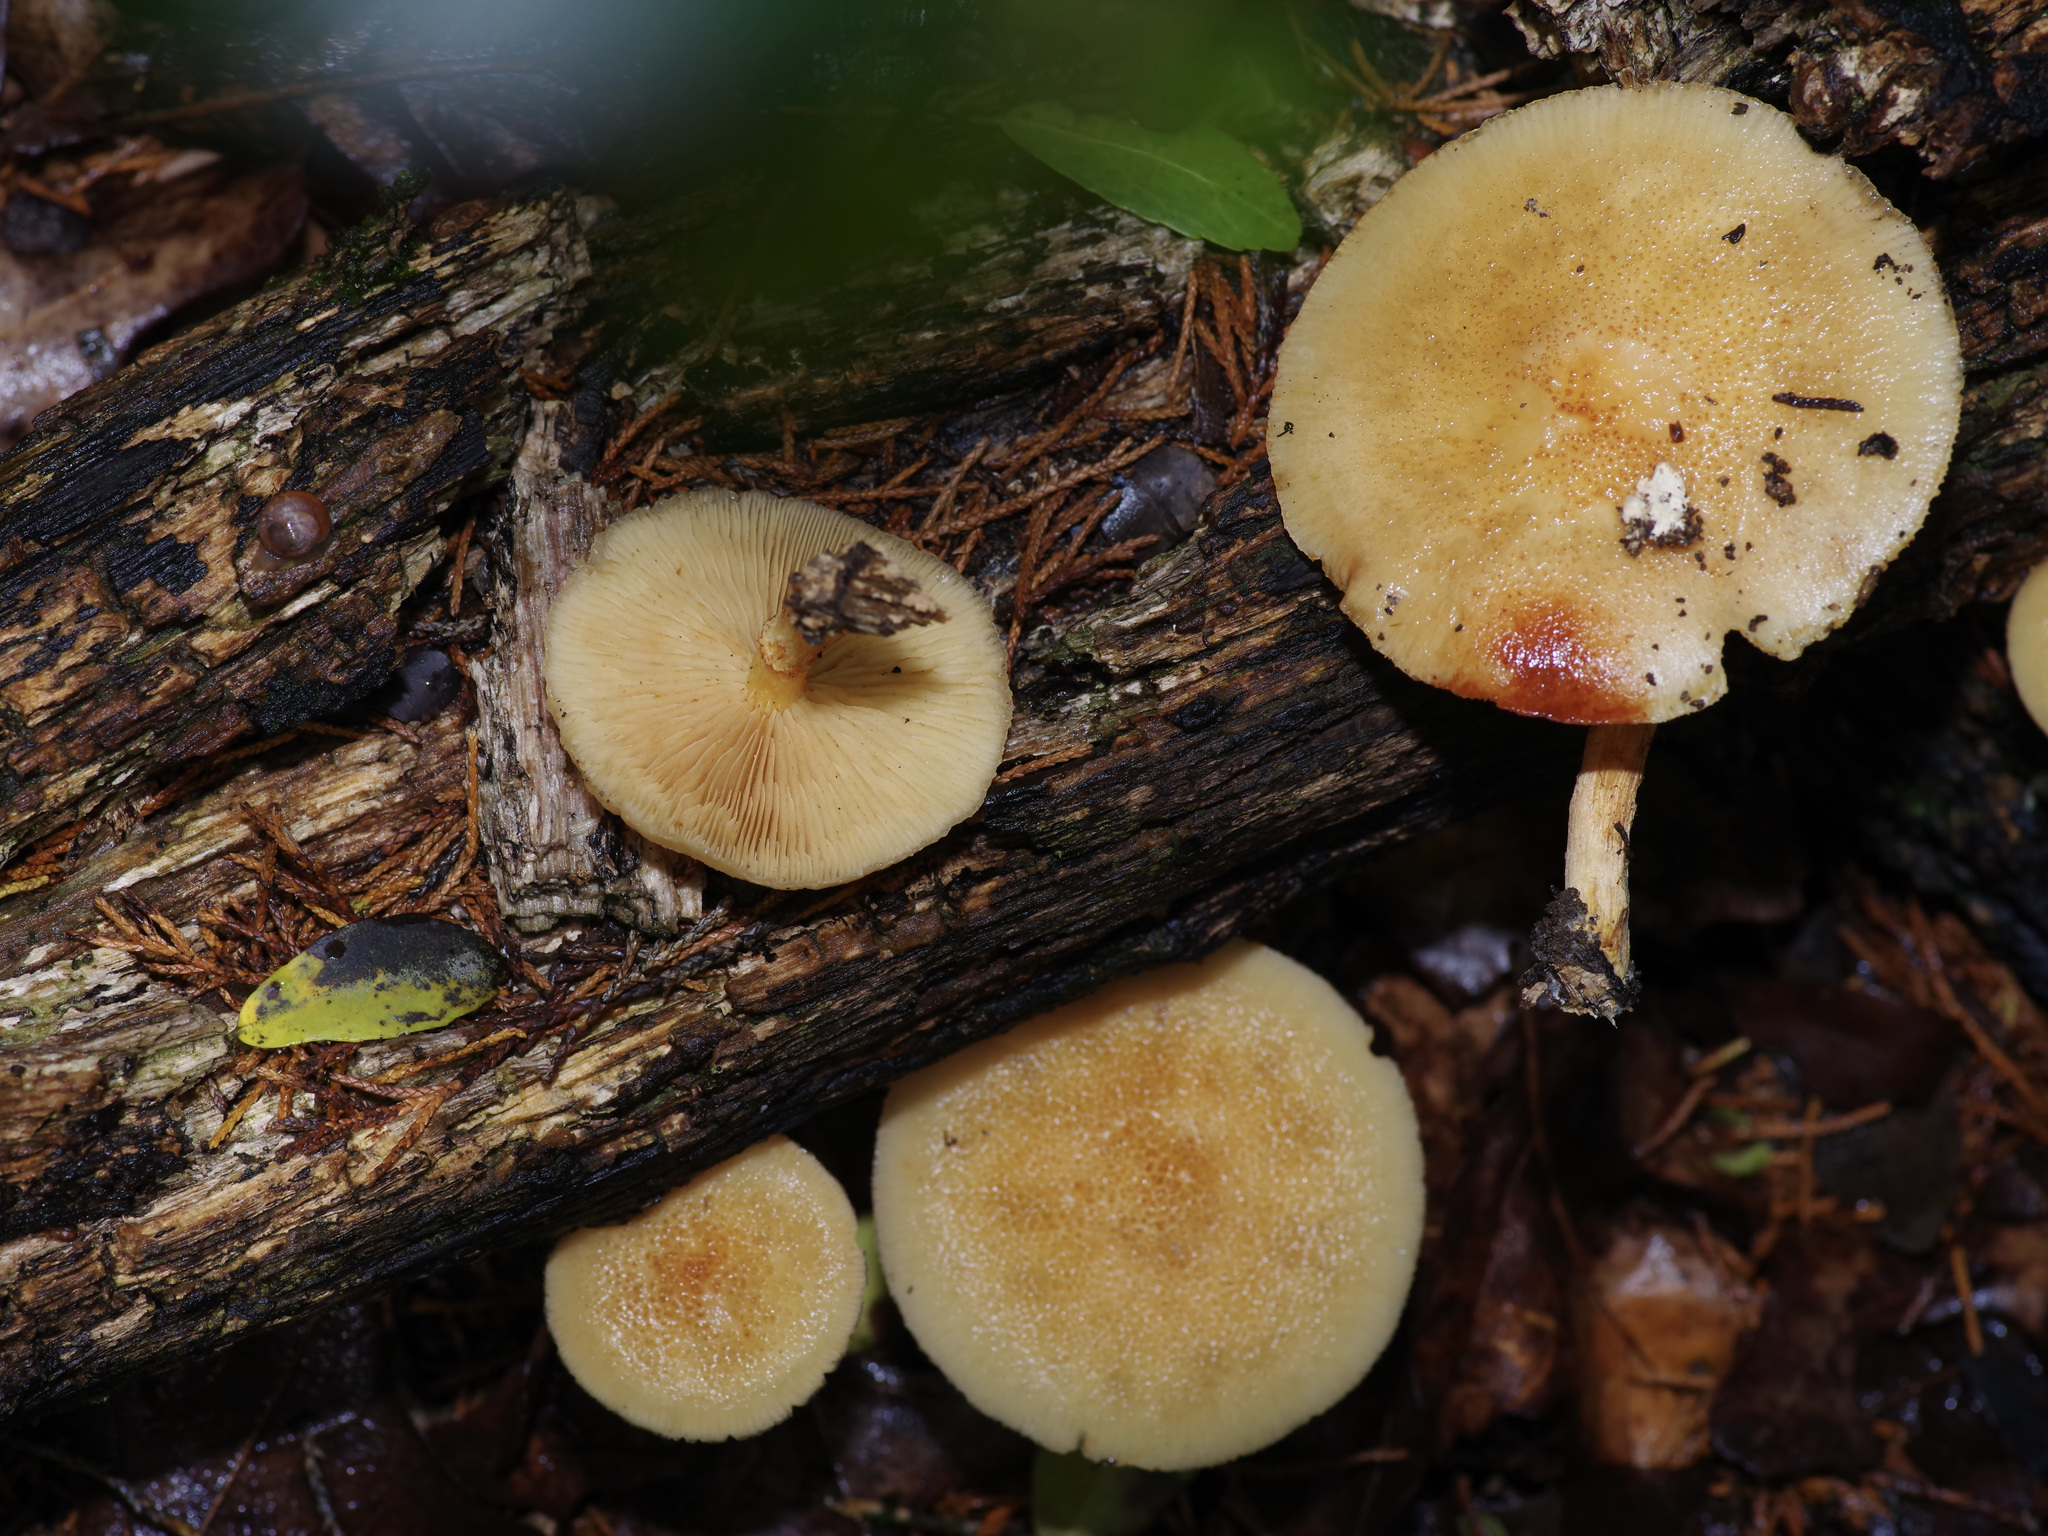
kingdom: Fungi
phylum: Basidiomycota
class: Agaricomycetes
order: Agaricales
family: Omphalotaceae
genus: Gymnopus
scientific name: Gymnopus dryophilus
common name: Penny top
